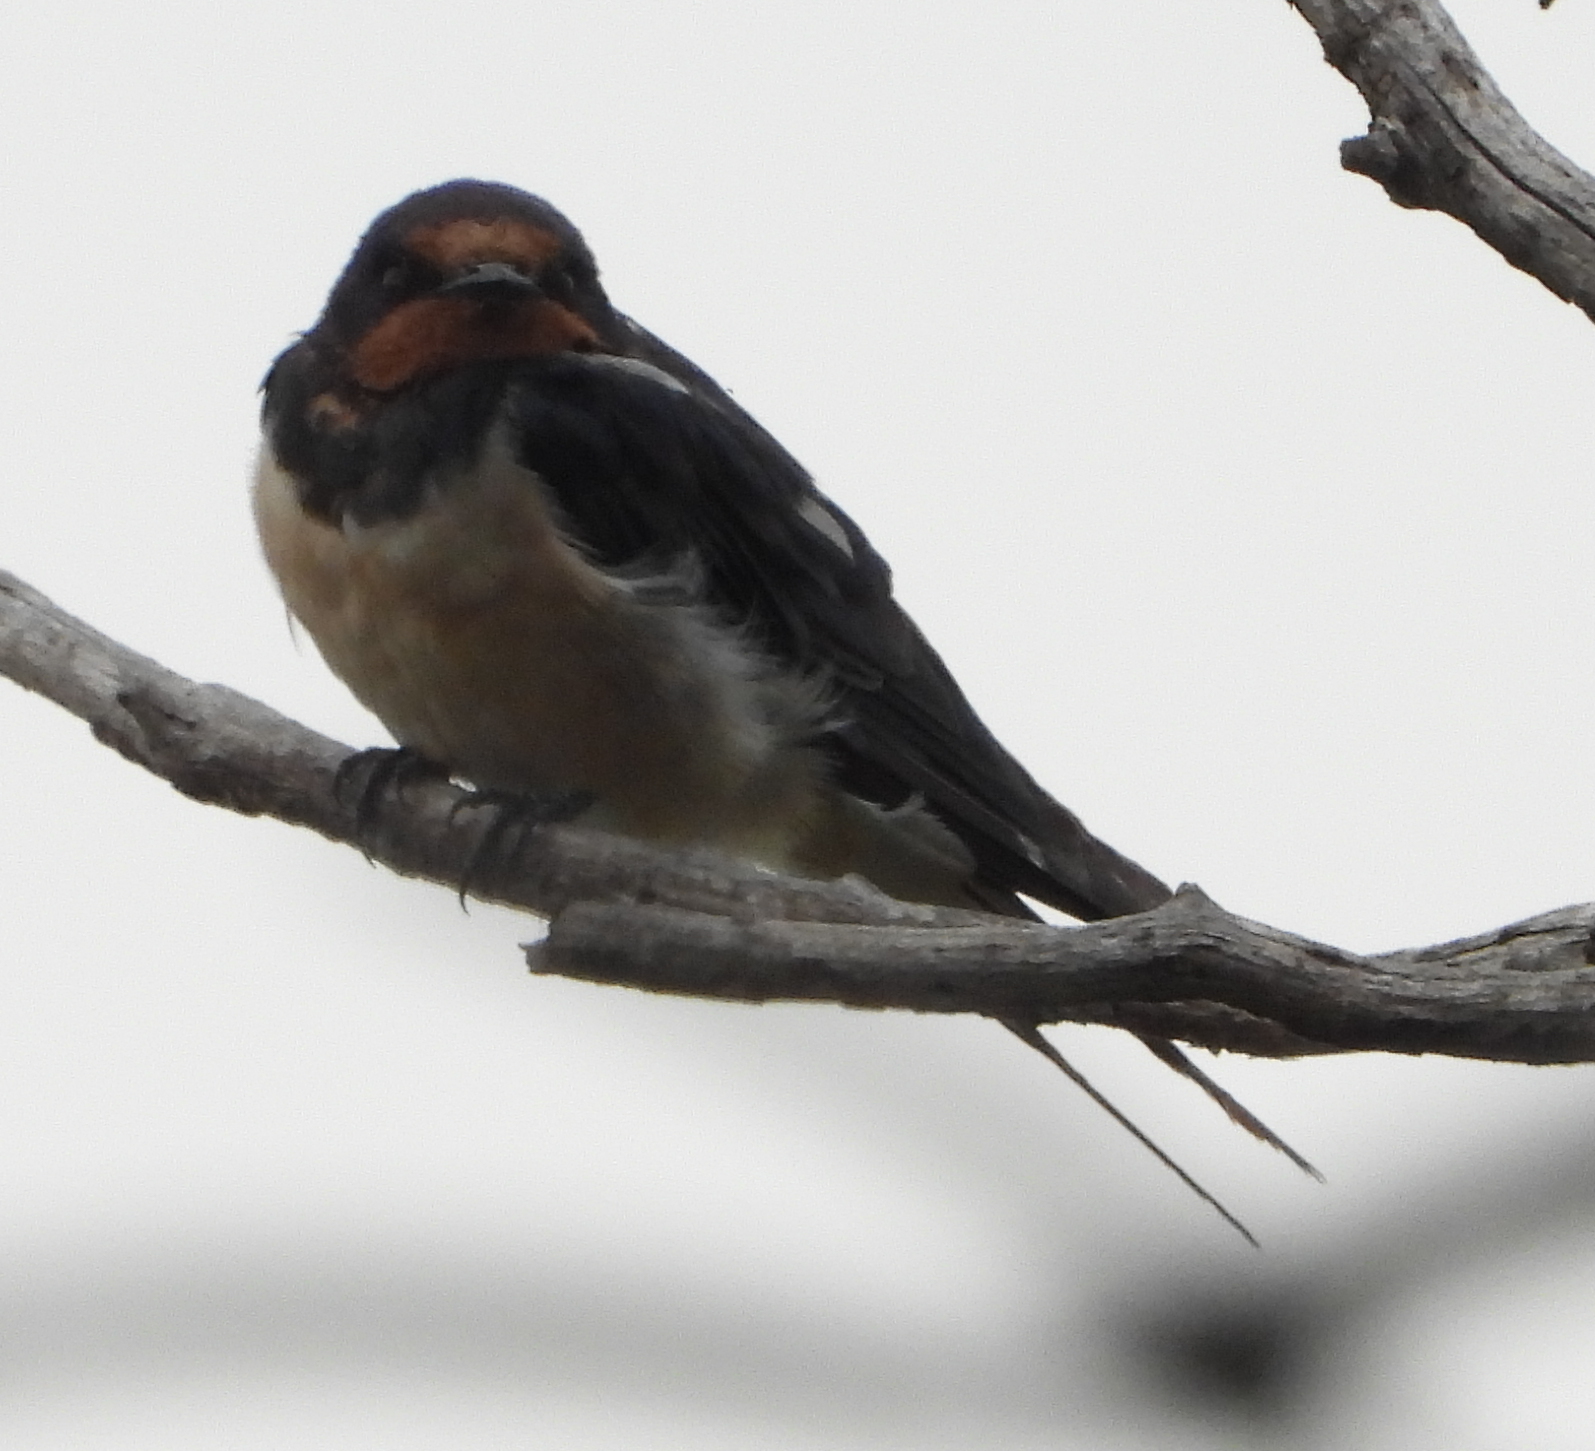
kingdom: Animalia
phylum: Chordata
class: Aves
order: Passeriformes
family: Hirundinidae
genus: Hirundo
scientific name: Hirundo rustica
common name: Barn swallow
